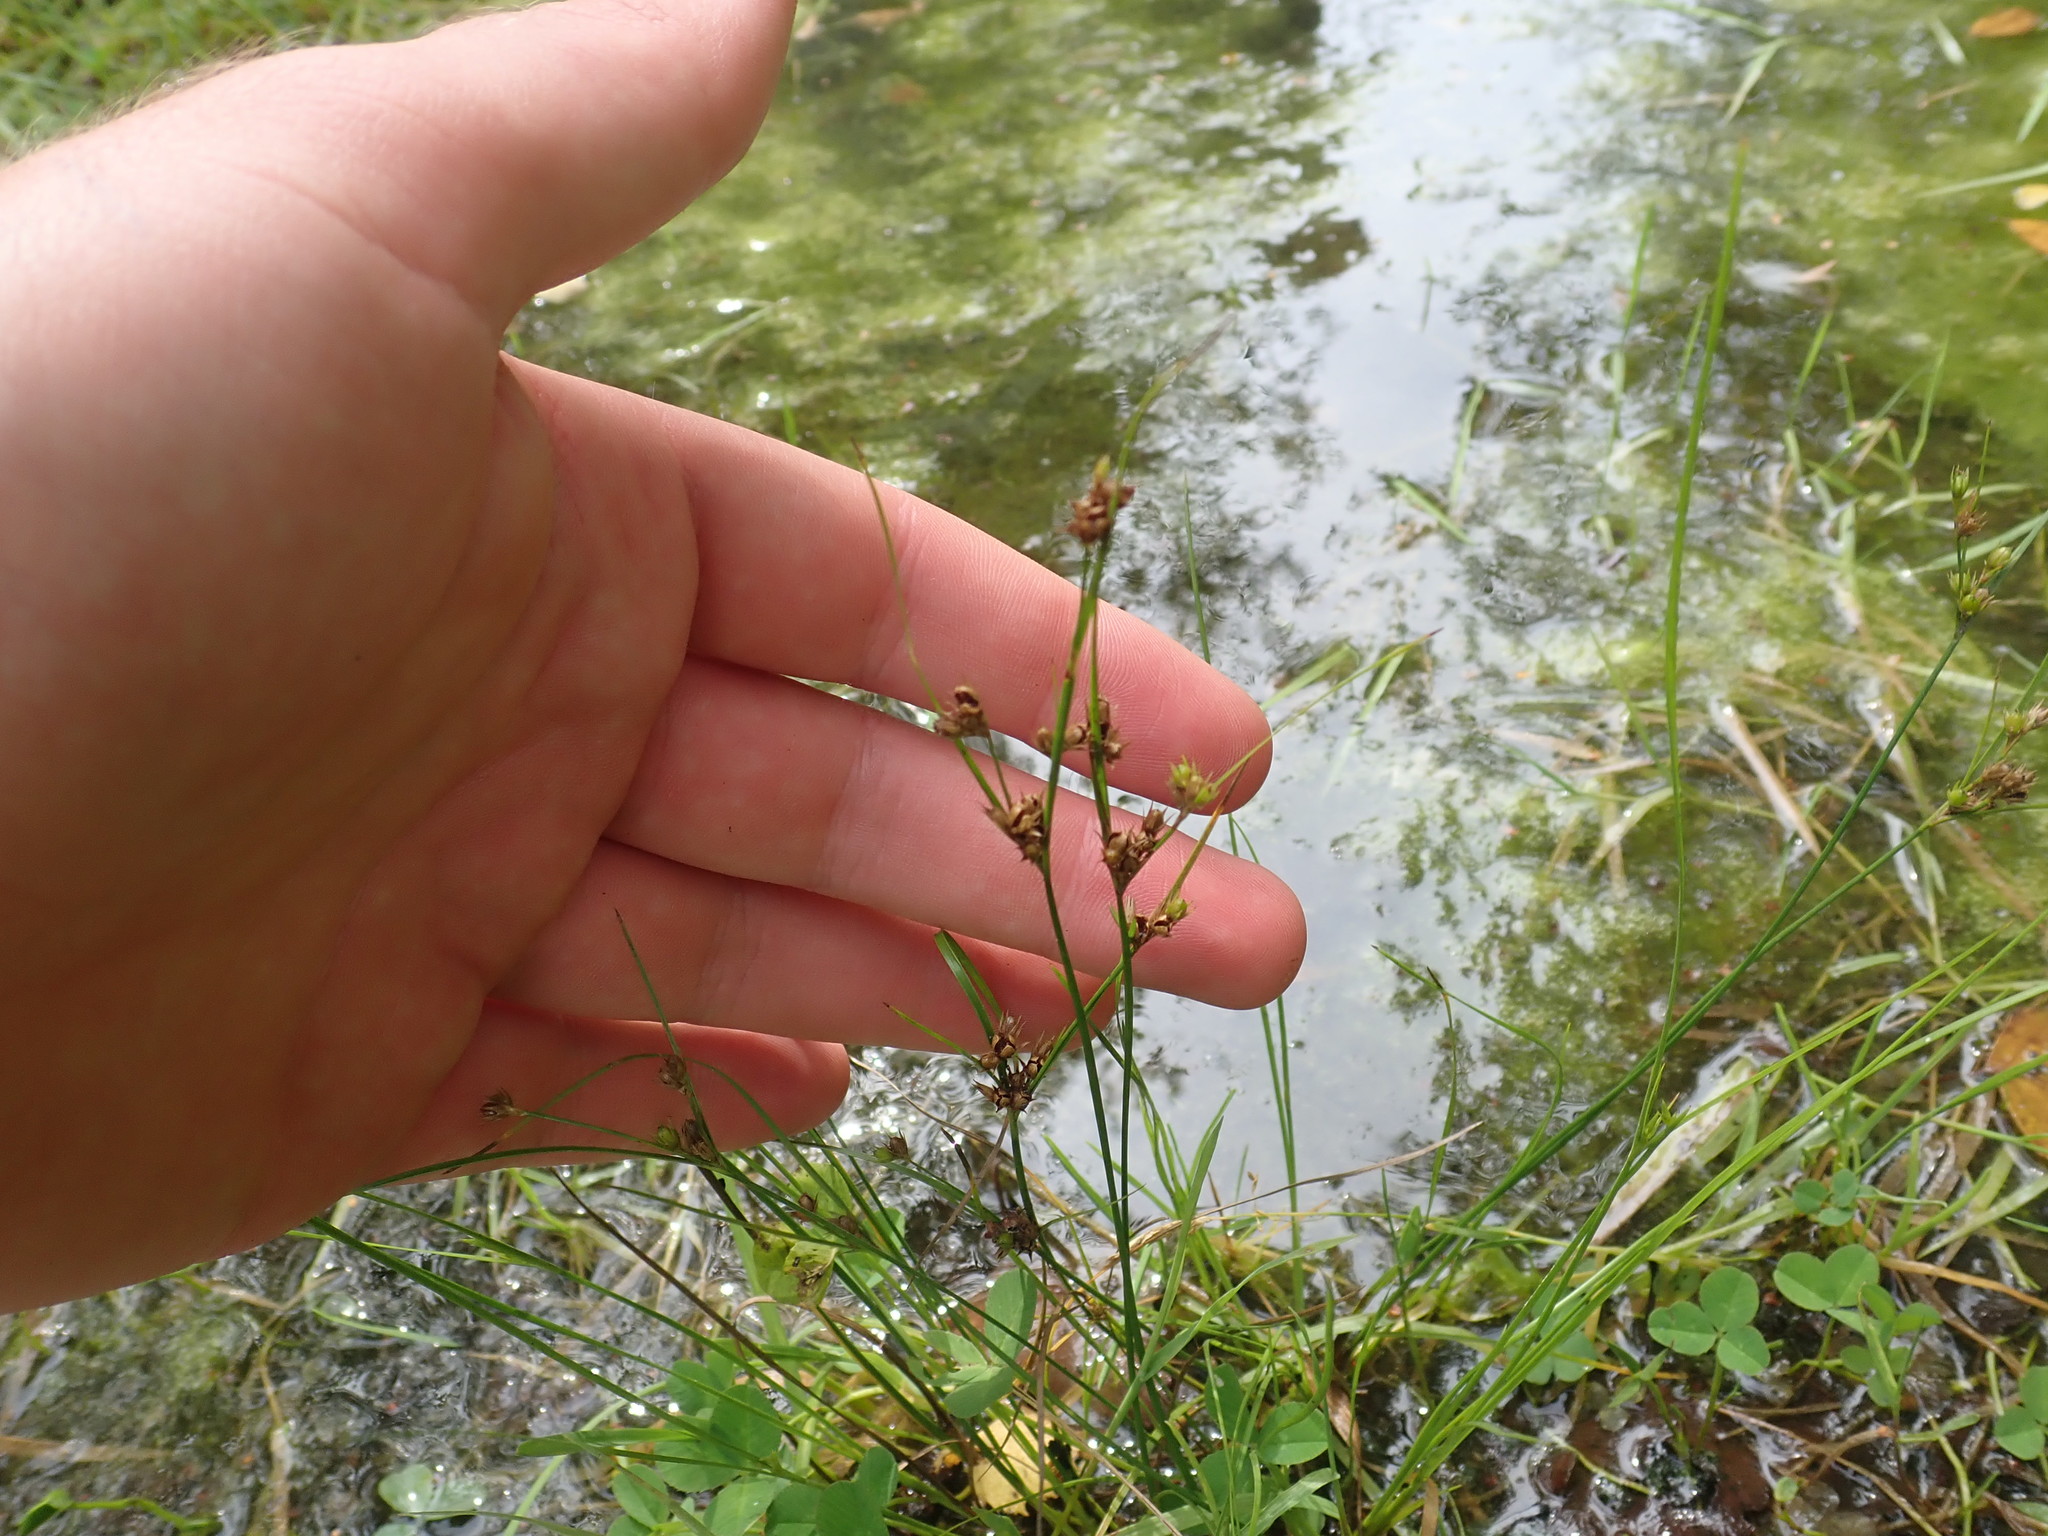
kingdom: Plantae
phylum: Tracheophyta
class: Liliopsida
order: Poales
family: Juncaceae
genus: Juncus
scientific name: Juncus tenuis
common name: Slender rush
